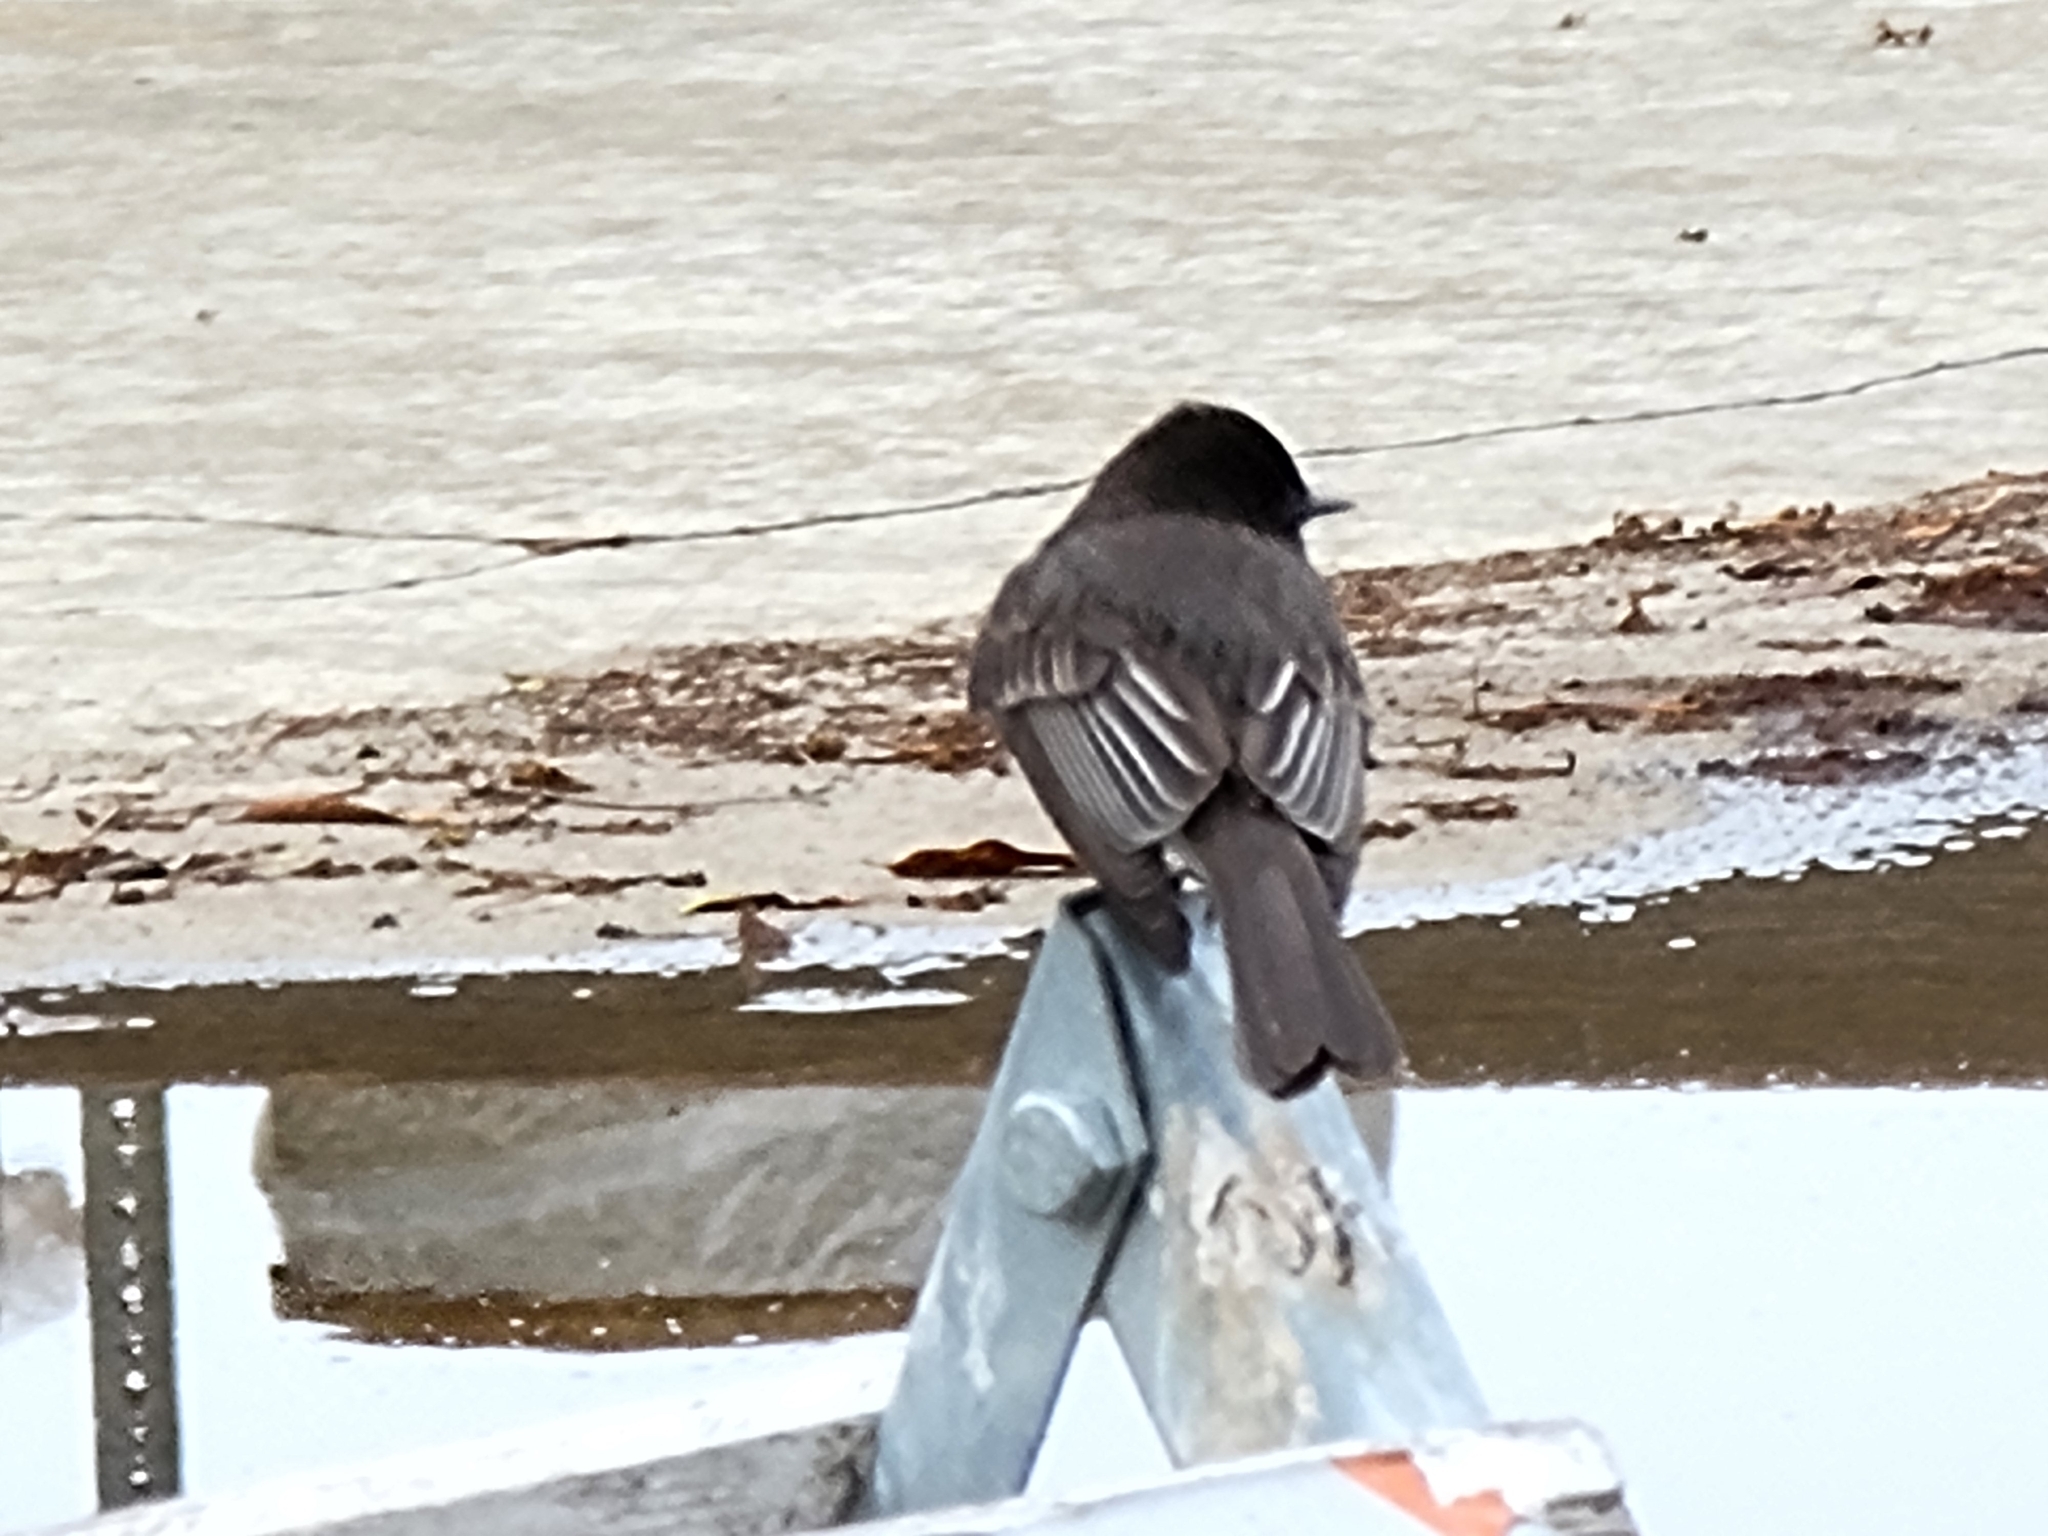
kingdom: Animalia
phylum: Chordata
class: Aves
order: Passeriformes
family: Tyrannidae
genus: Sayornis
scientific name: Sayornis nigricans
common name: Black phoebe
